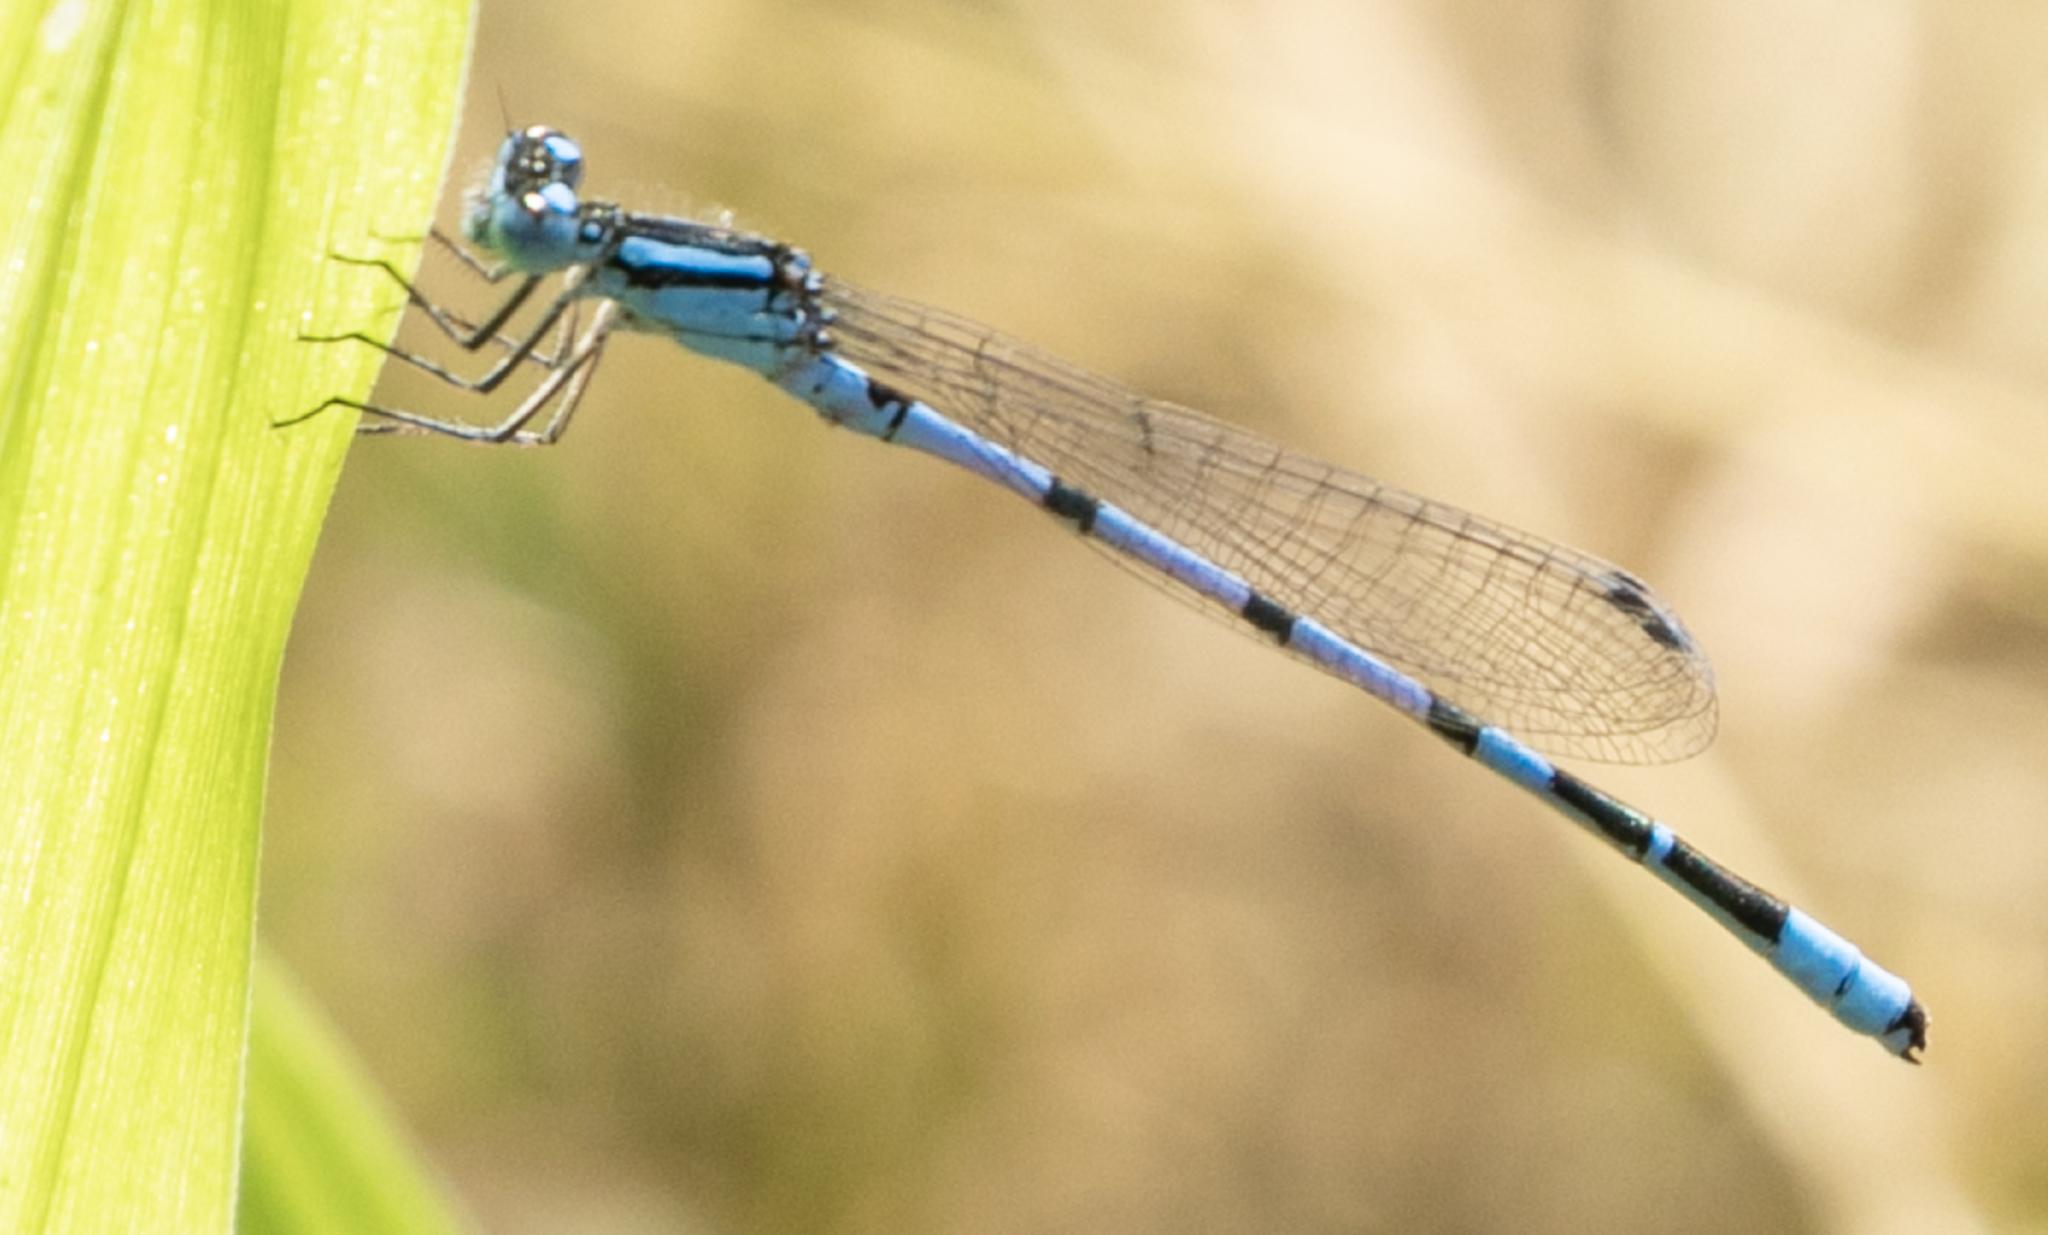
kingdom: Animalia
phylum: Arthropoda
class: Insecta
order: Odonata
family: Coenagrionidae
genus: Enallagma
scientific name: Enallagma cyathigerum
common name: Common blue damselfly
